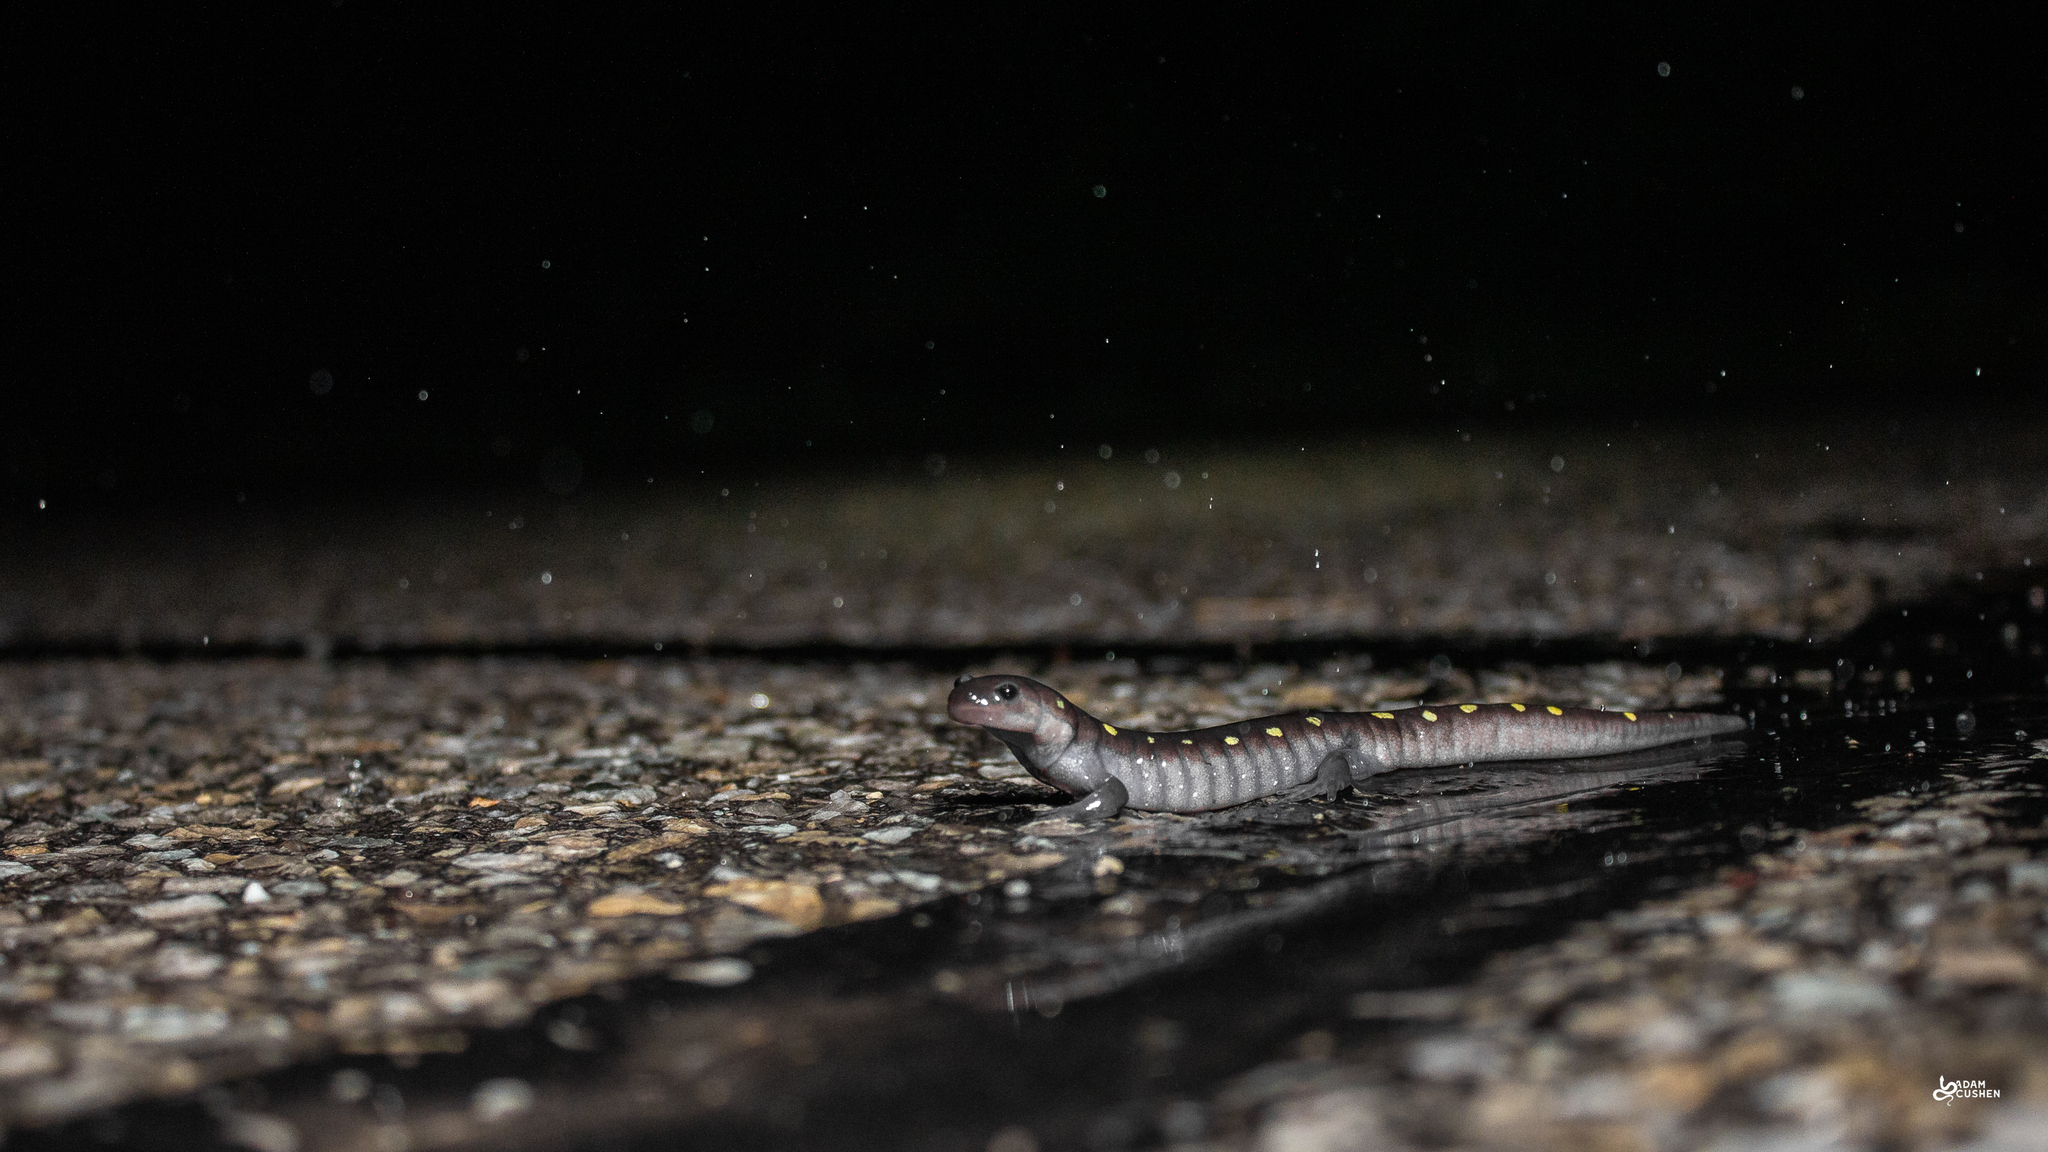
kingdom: Animalia
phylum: Chordata
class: Amphibia
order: Caudata
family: Ambystomatidae
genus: Ambystoma
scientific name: Ambystoma maculatum
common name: Spotted salamander
